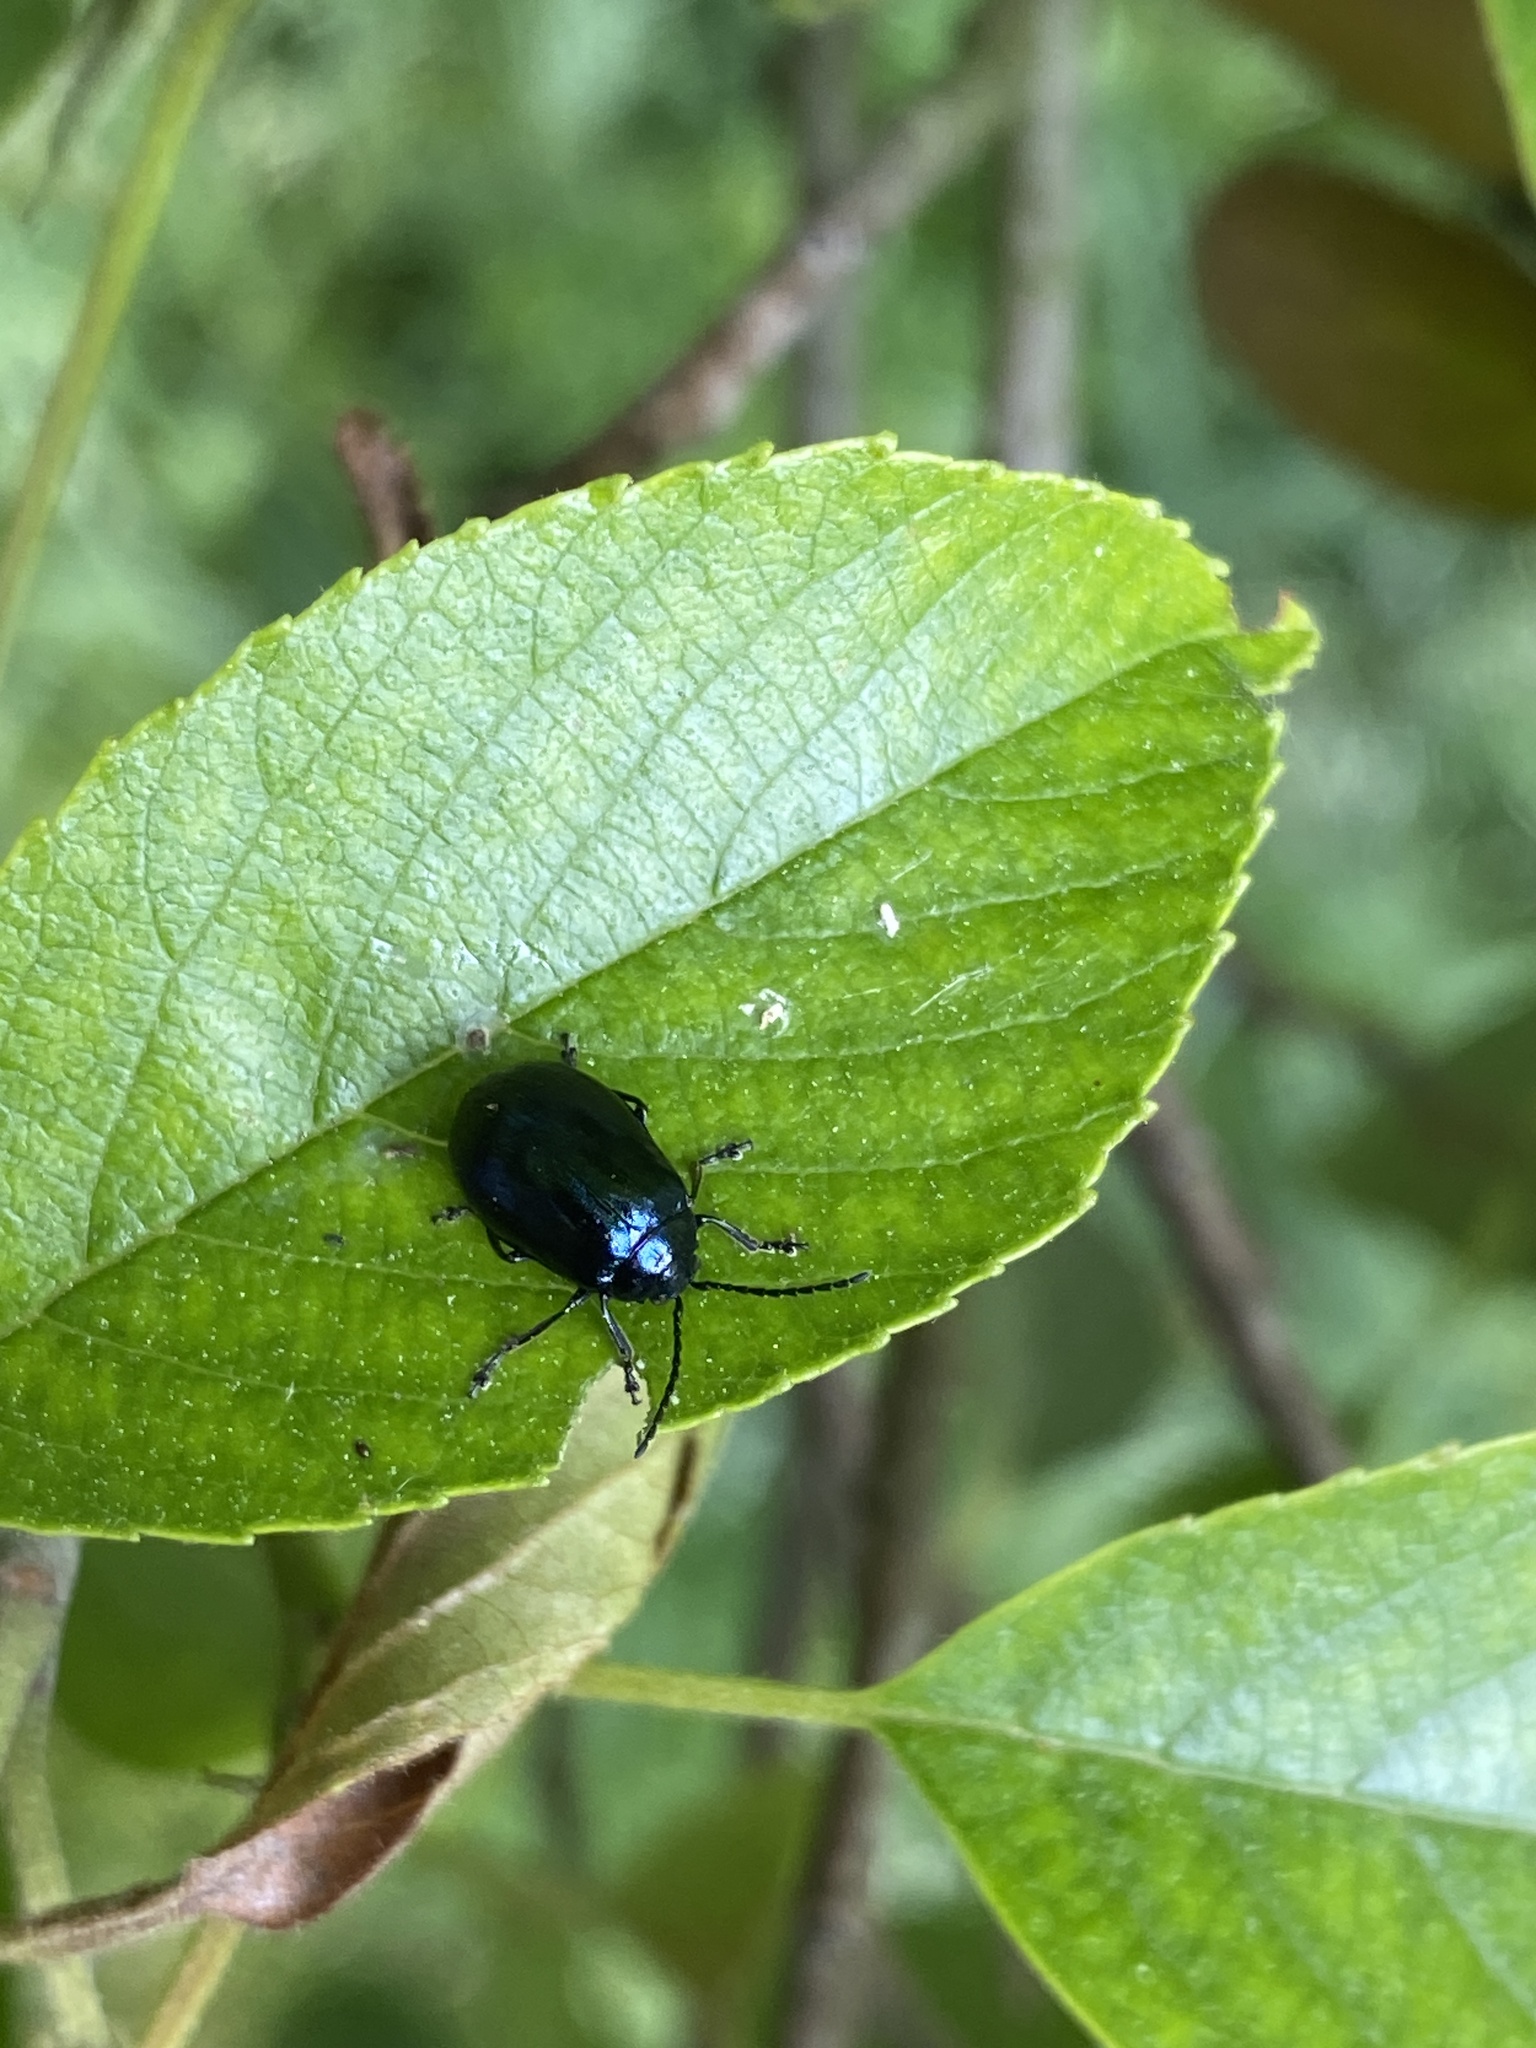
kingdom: Animalia
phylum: Arthropoda
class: Insecta
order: Coleoptera
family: Chrysomelidae
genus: Agelastica
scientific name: Agelastica alni
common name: Alder leaf beetle
